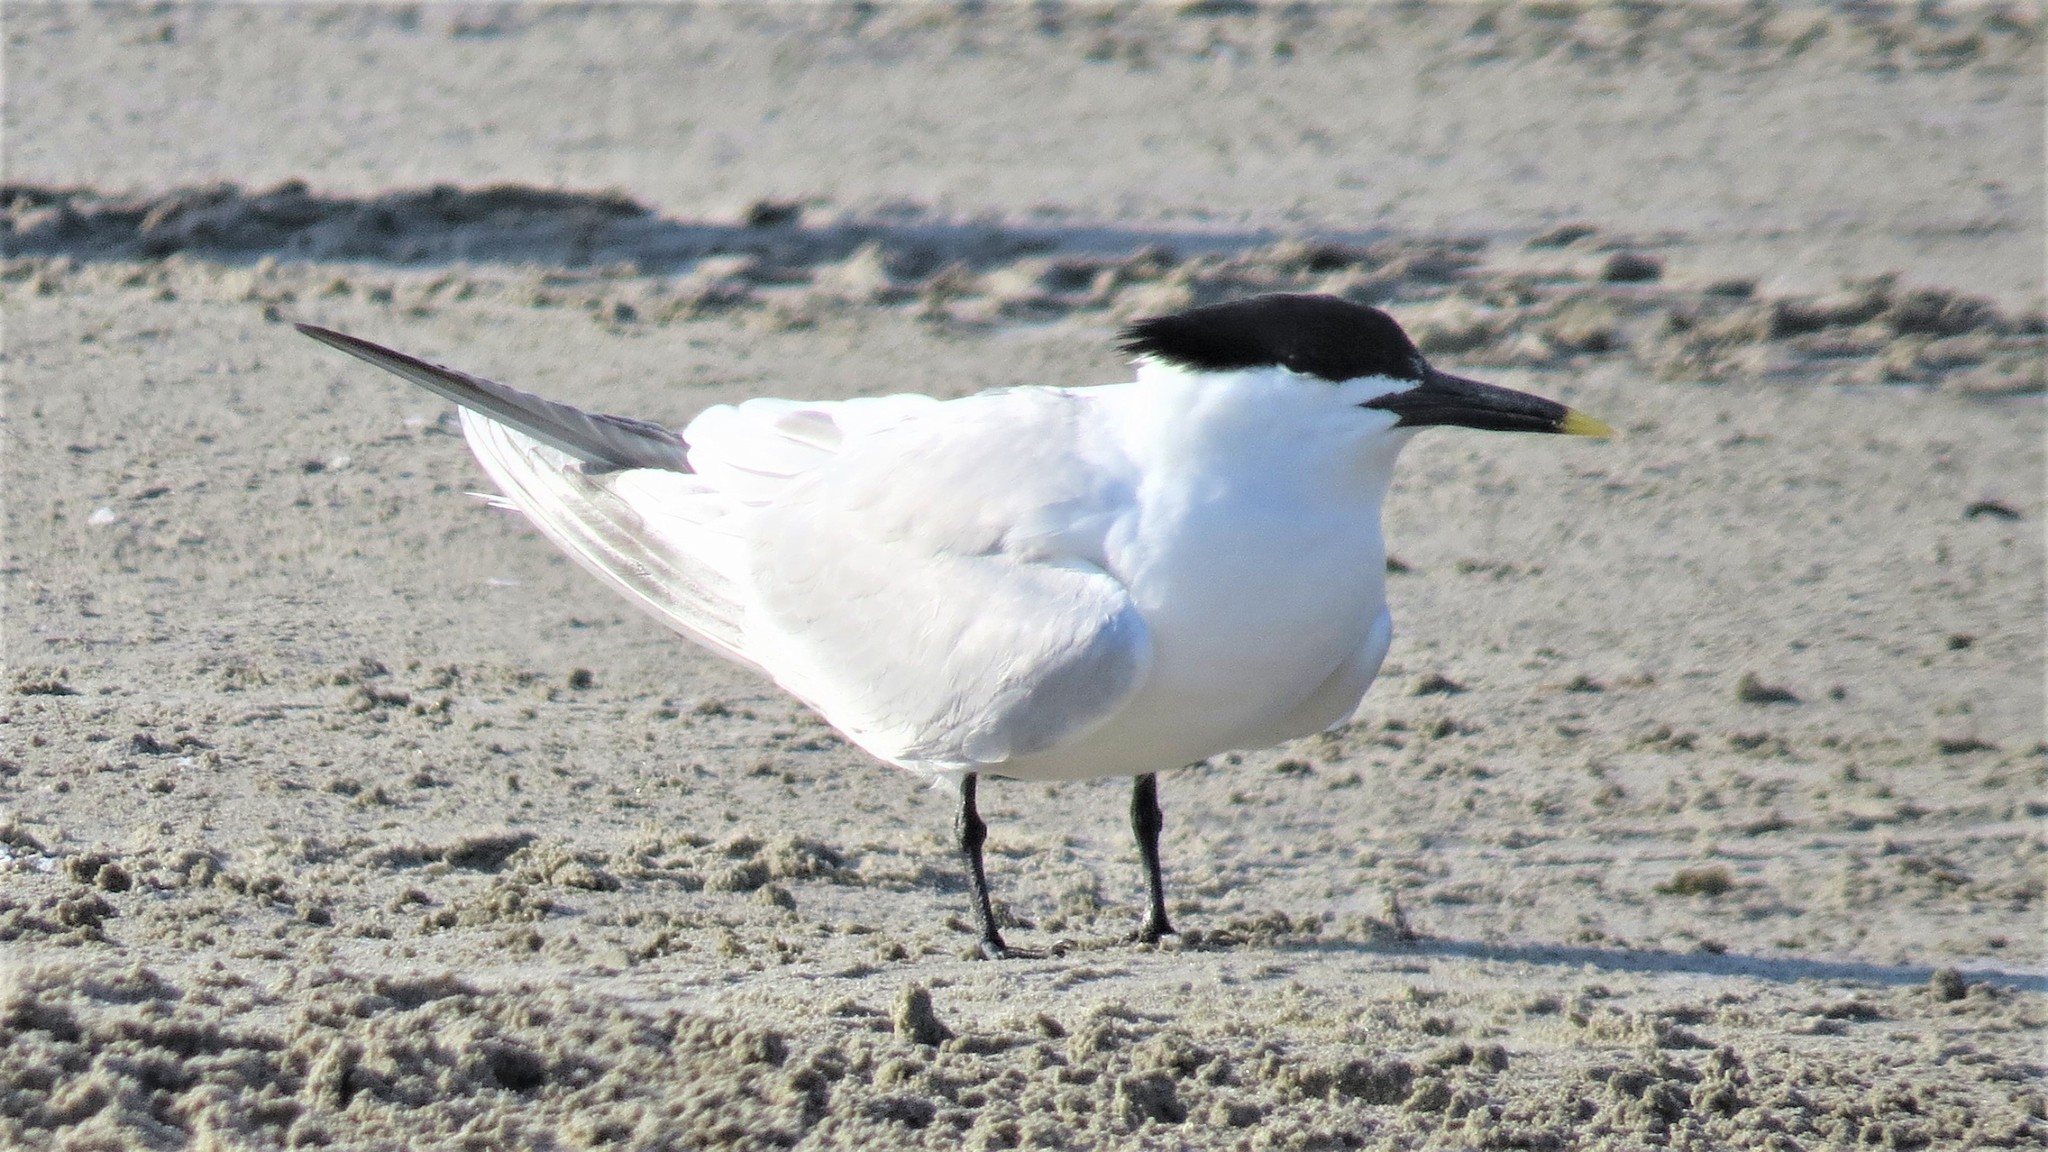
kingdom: Animalia
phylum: Chordata
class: Aves
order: Charadriiformes
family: Laridae
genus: Thalasseus
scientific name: Thalasseus sandvicensis
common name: Sandwich tern
